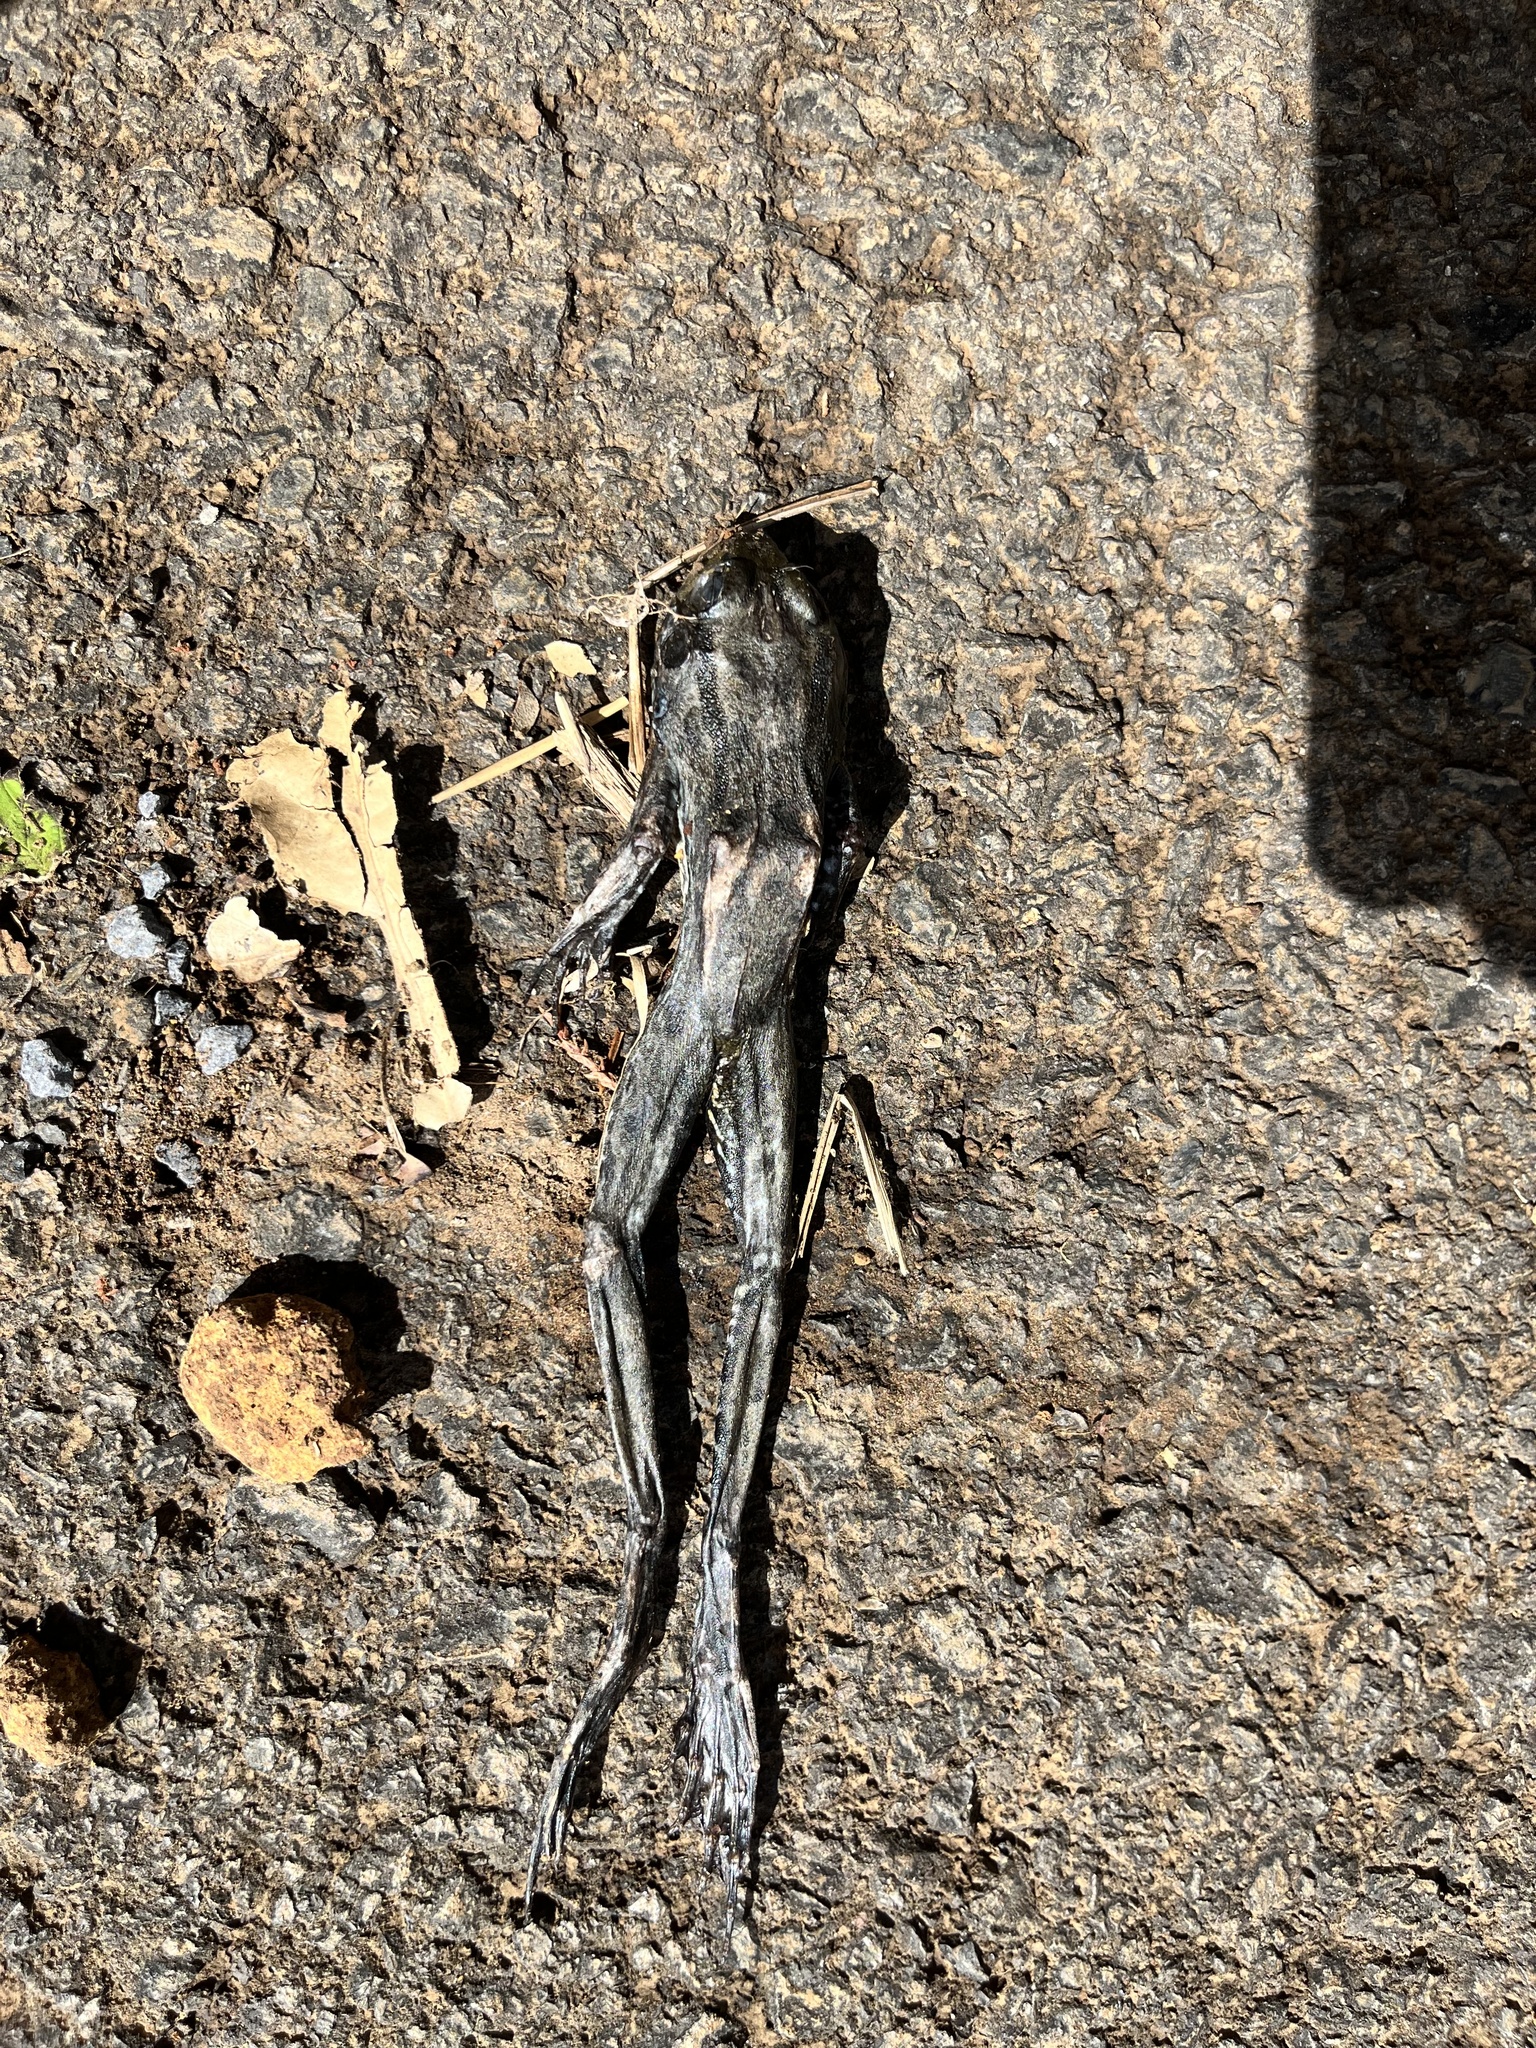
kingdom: Animalia
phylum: Chordata
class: Amphibia
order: Anura
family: Ranidae
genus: Pelophylax
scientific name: Pelophylax perezi
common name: Perez's frog
